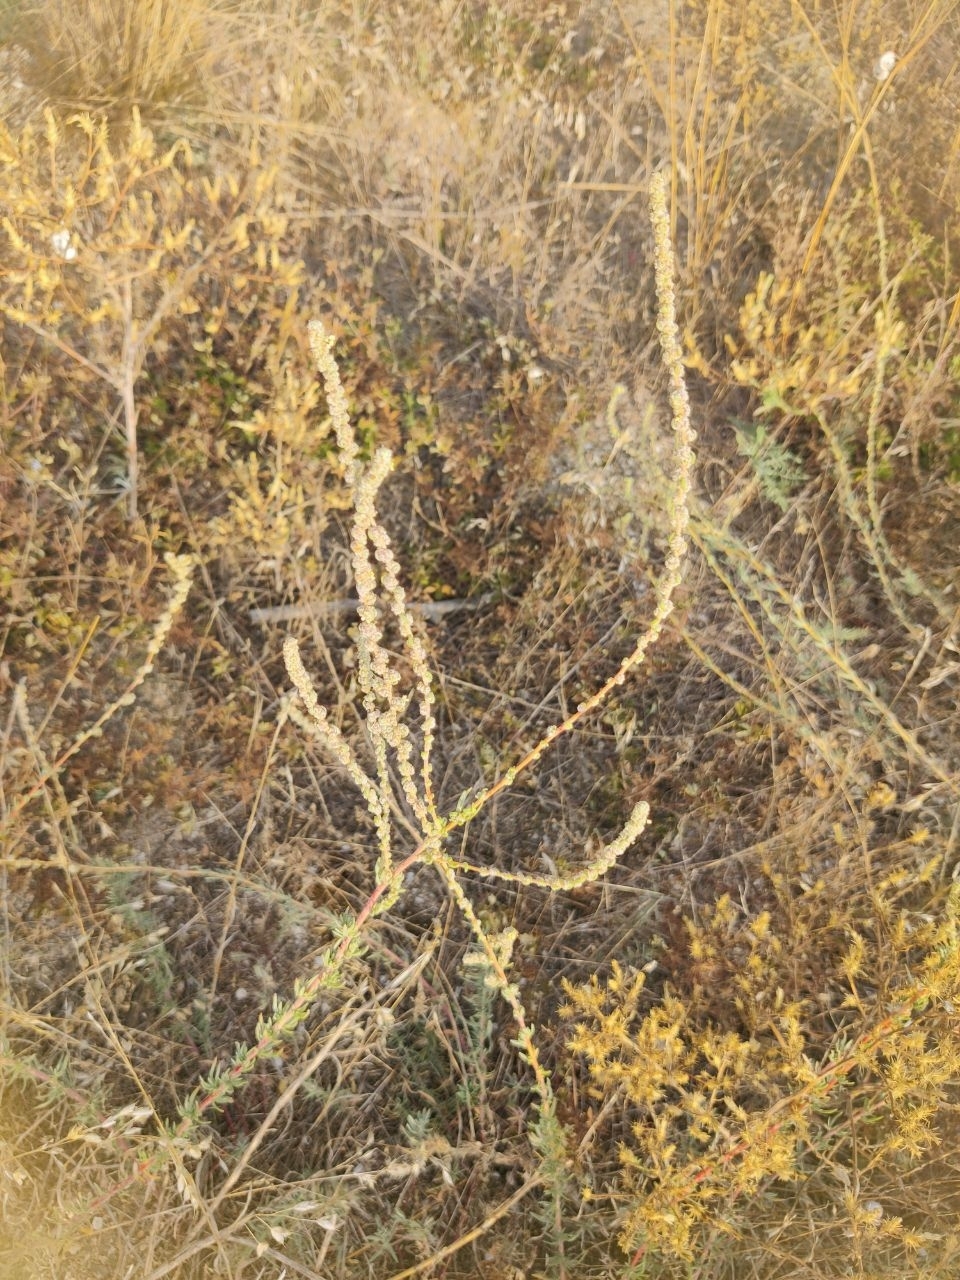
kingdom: Plantae
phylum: Tracheophyta
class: Magnoliopsida
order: Caryophyllales
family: Amaranthaceae
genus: Bassia
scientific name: Bassia prostrata
